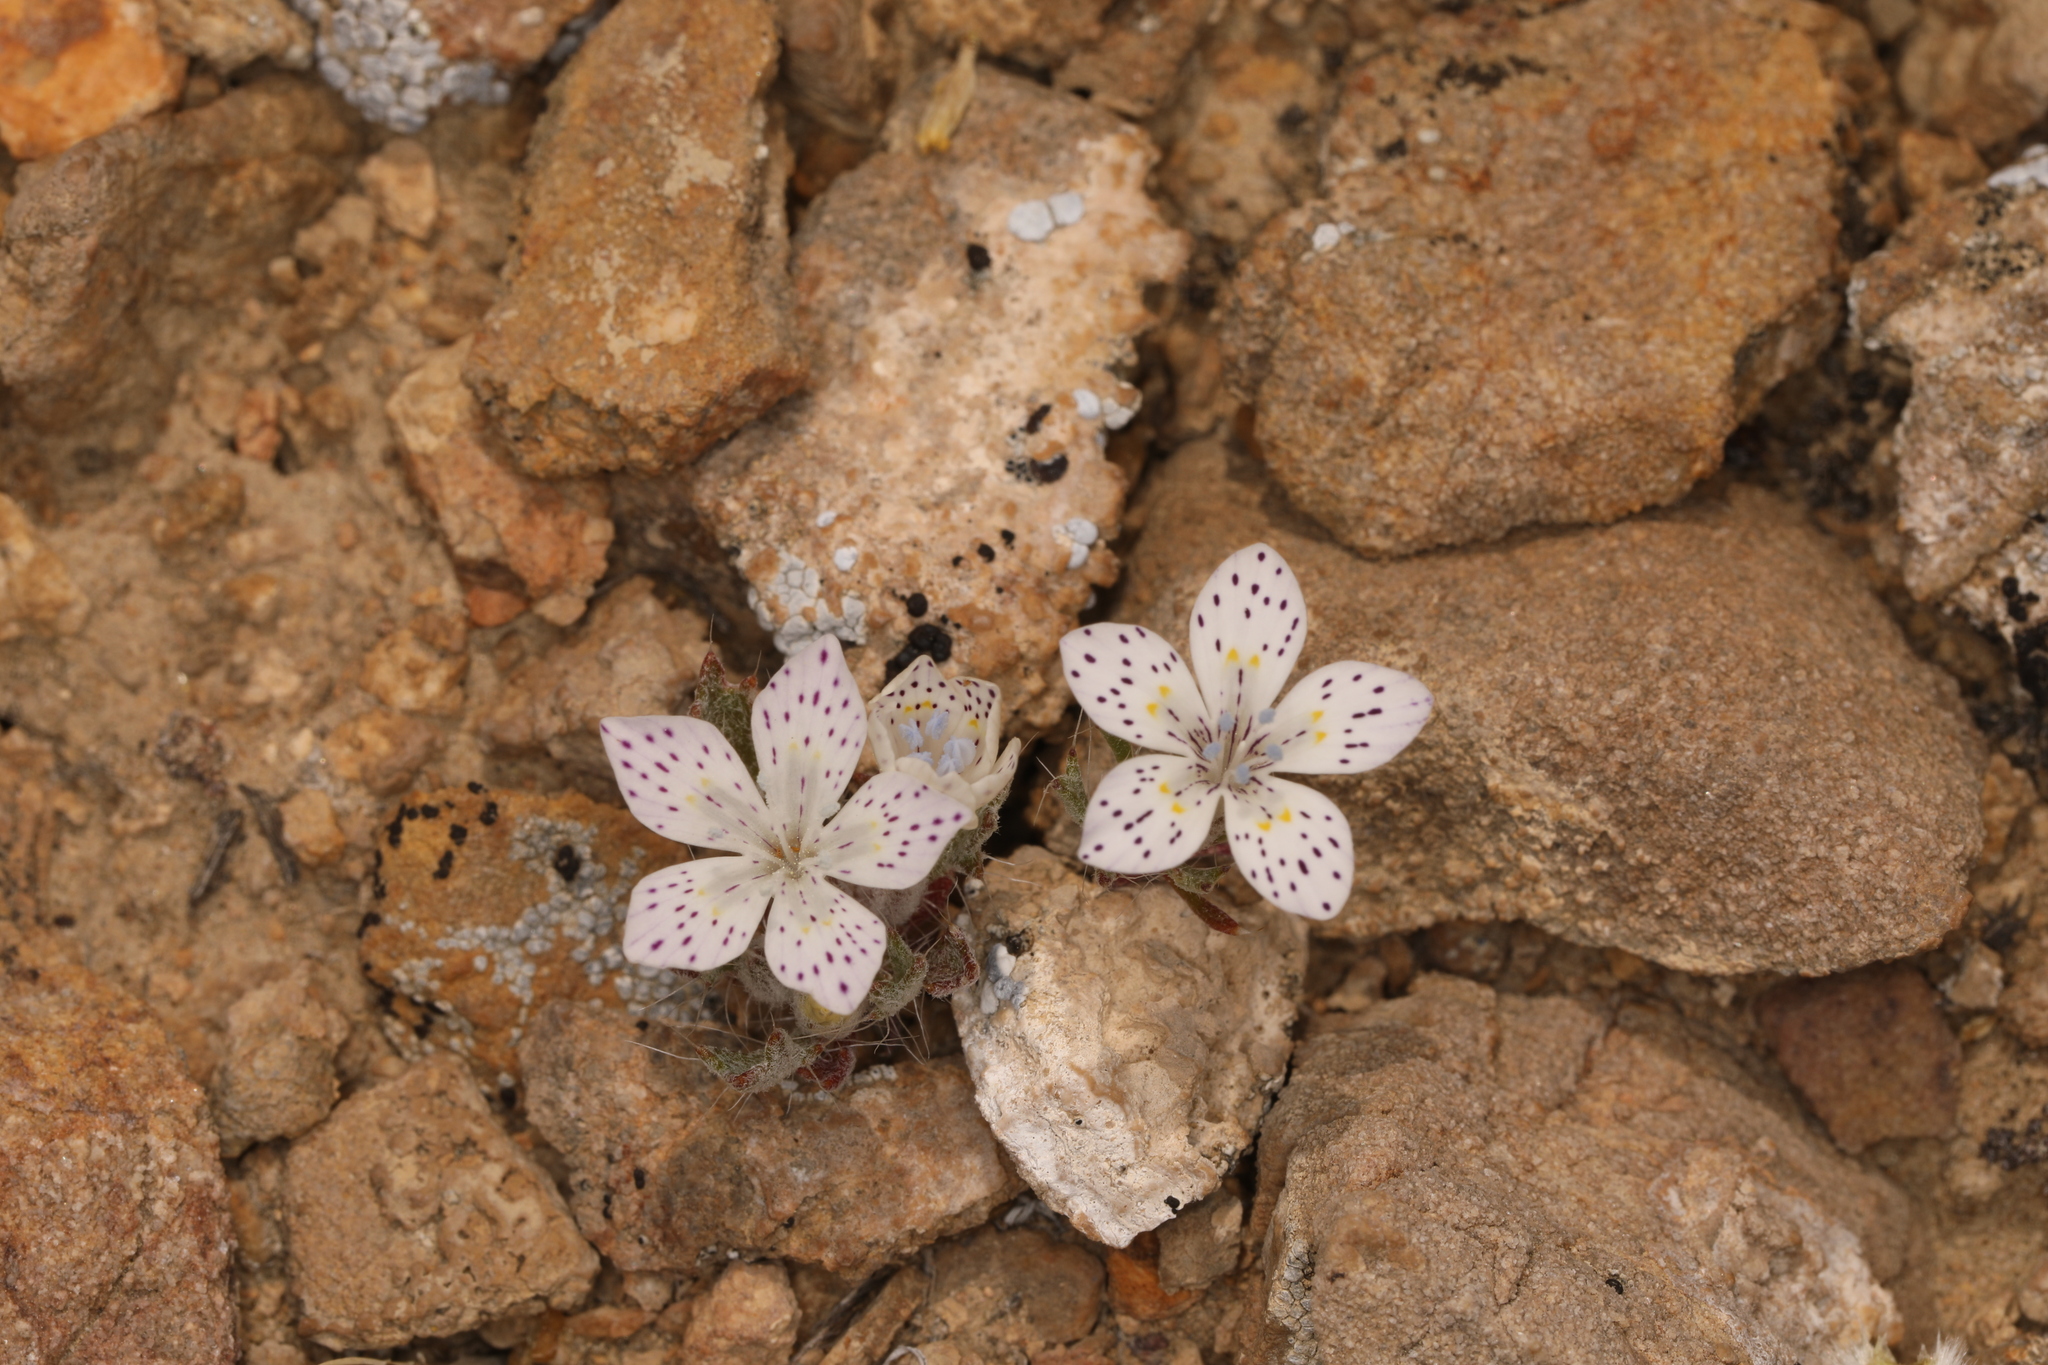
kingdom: Plantae
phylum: Tracheophyta
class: Magnoliopsida
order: Ericales
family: Polemoniaceae
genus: Langloisia
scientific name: Langloisia setosissima
